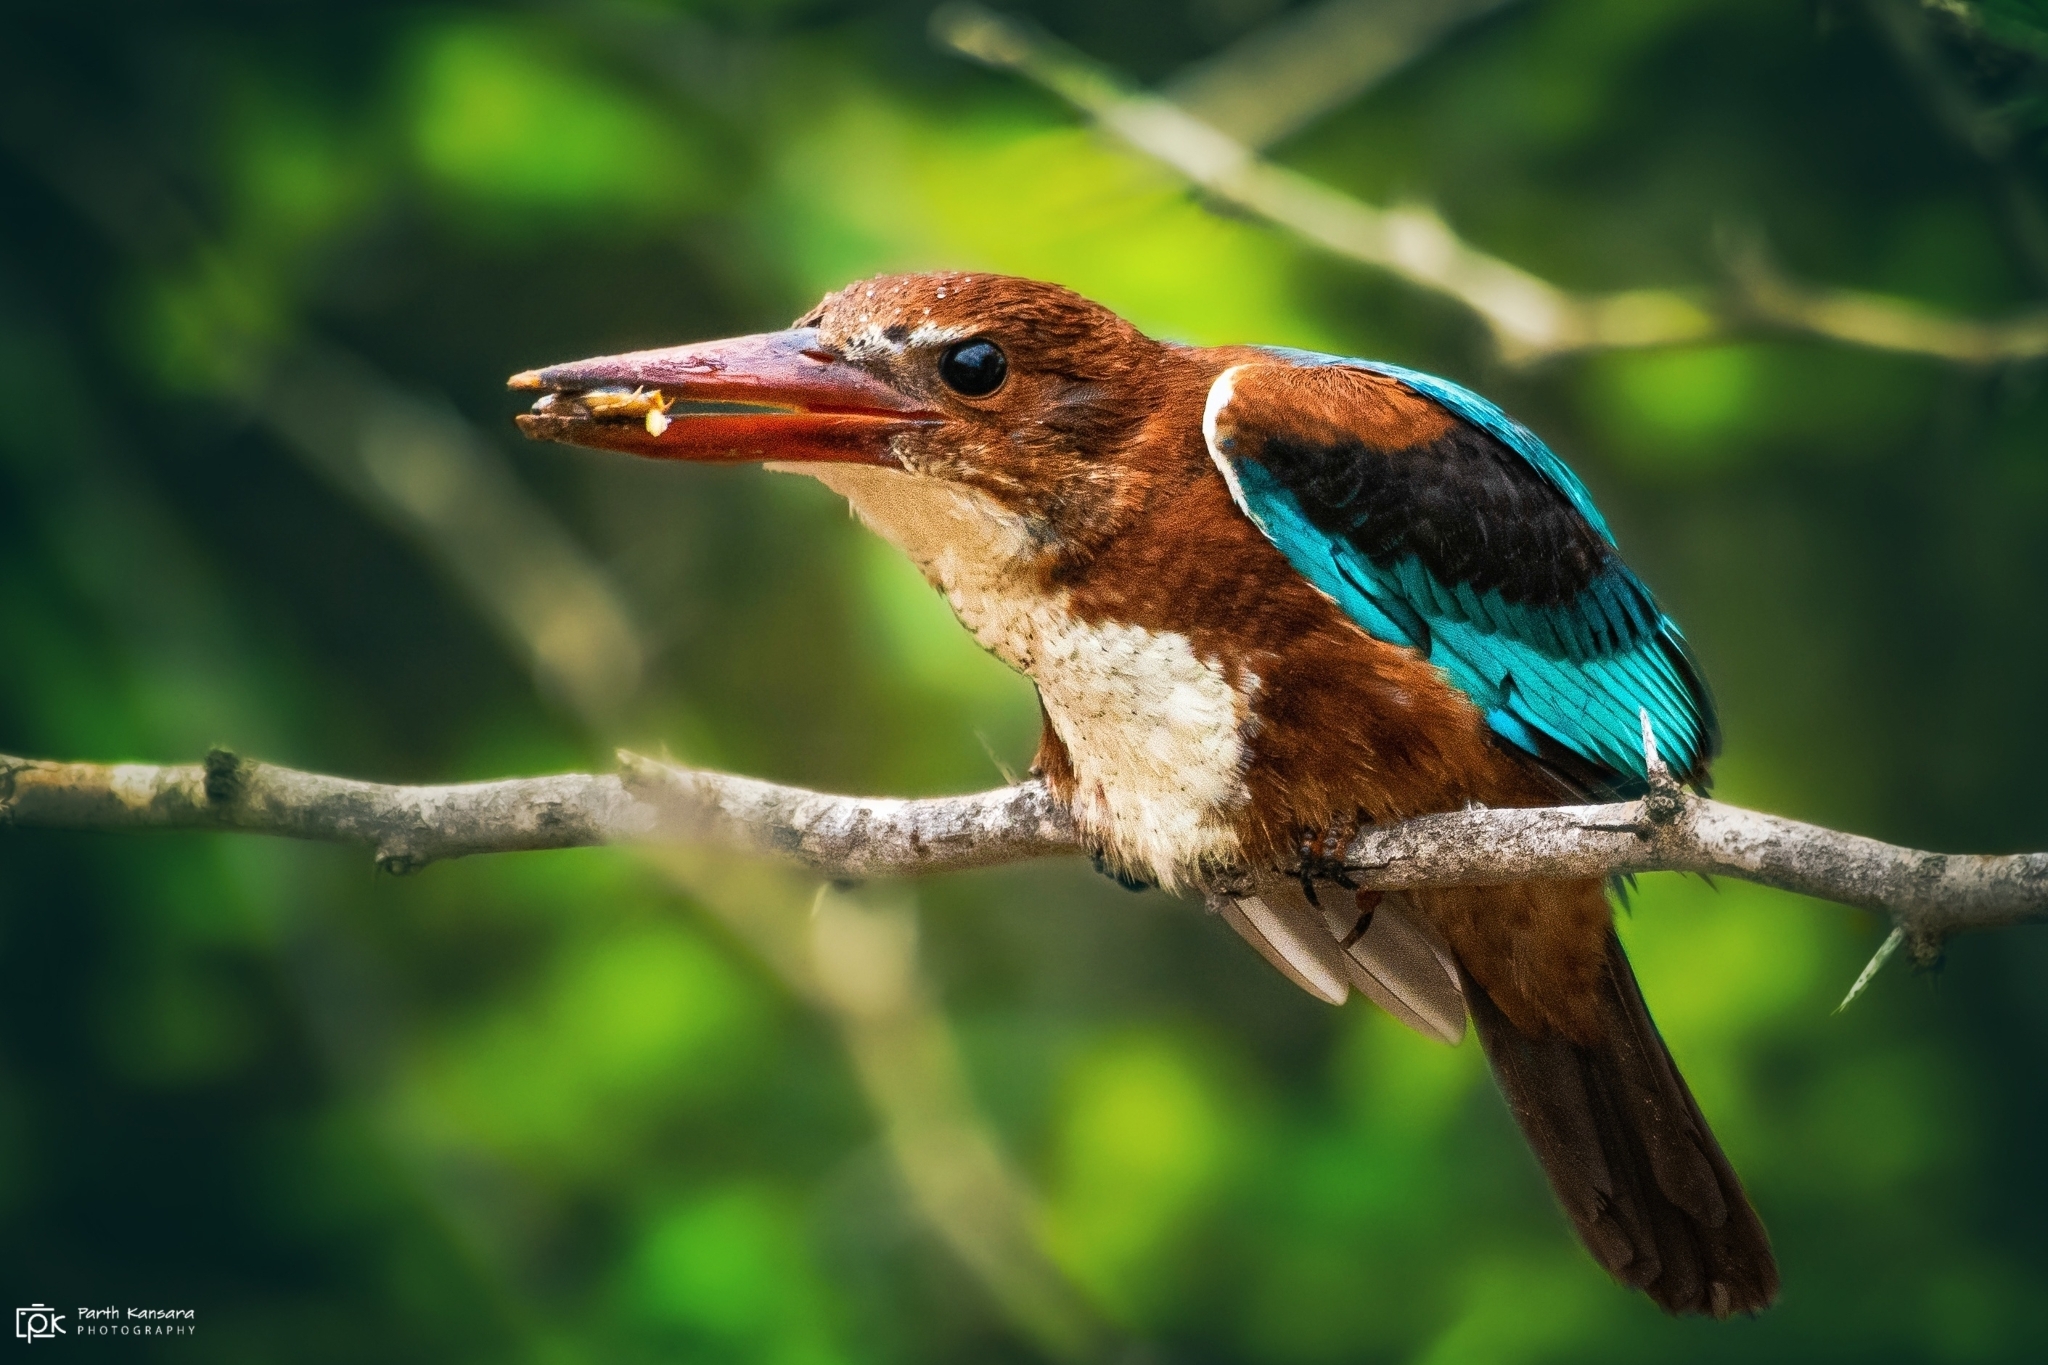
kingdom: Animalia
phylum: Chordata
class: Aves
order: Coraciiformes
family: Alcedinidae
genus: Halcyon
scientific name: Halcyon smyrnensis
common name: White-throated kingfisher
